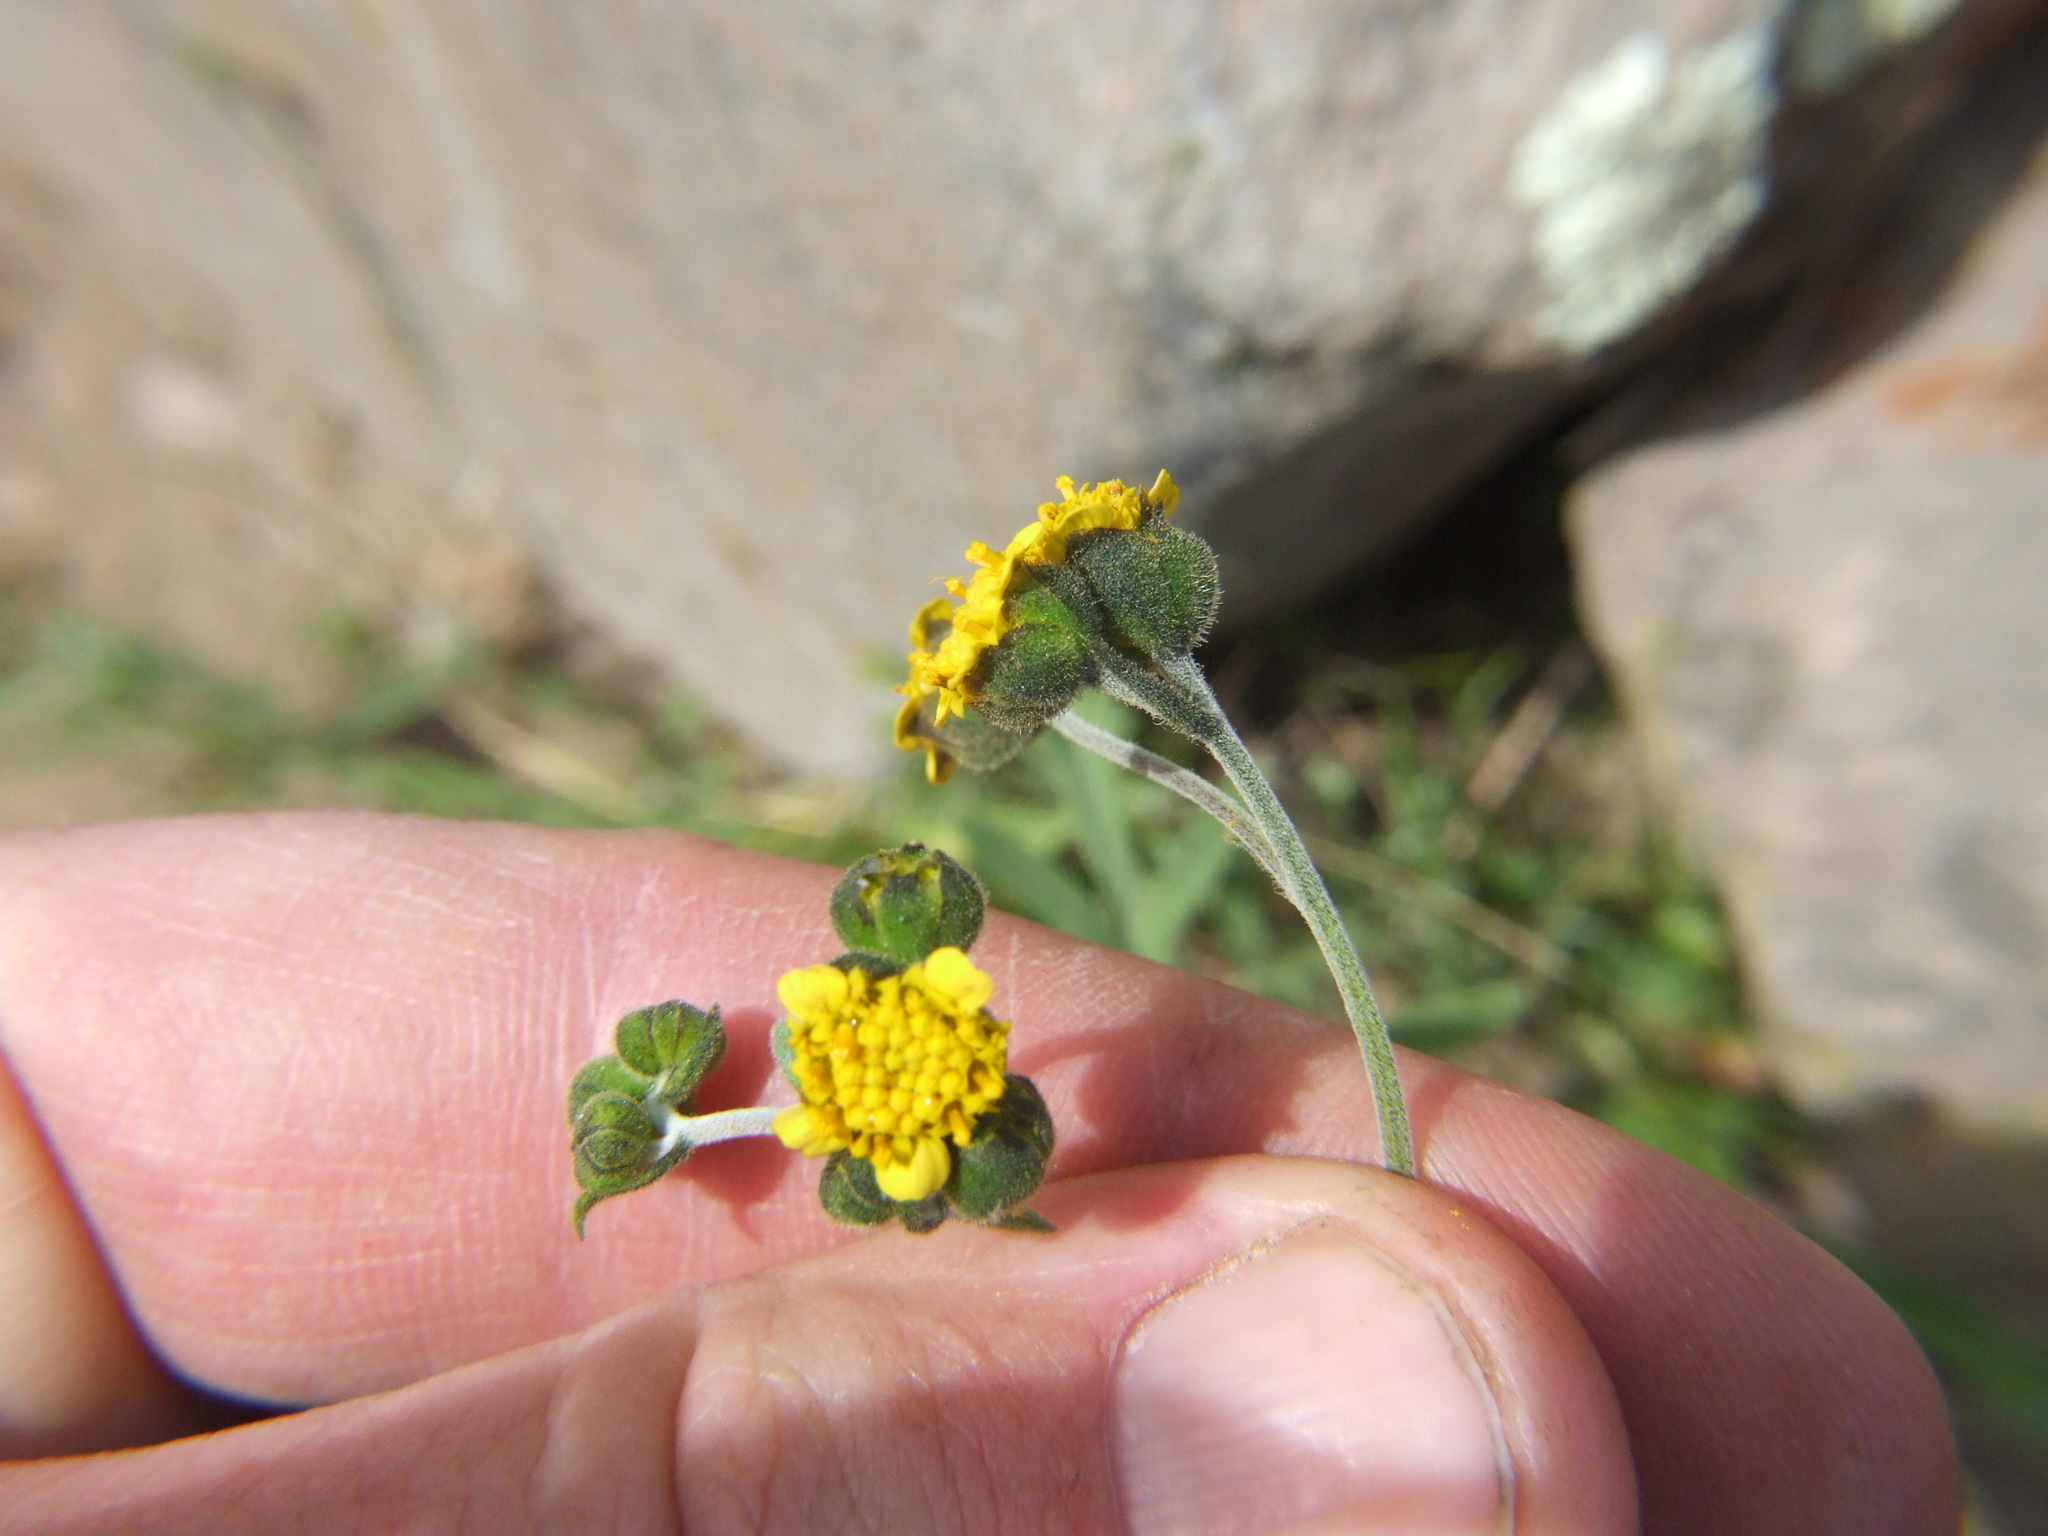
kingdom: Plantae
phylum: Tracheophyta
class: Magnoliopsida
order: Asterales
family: Asteraceae
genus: Villanova
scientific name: Villanova oppositifolia
